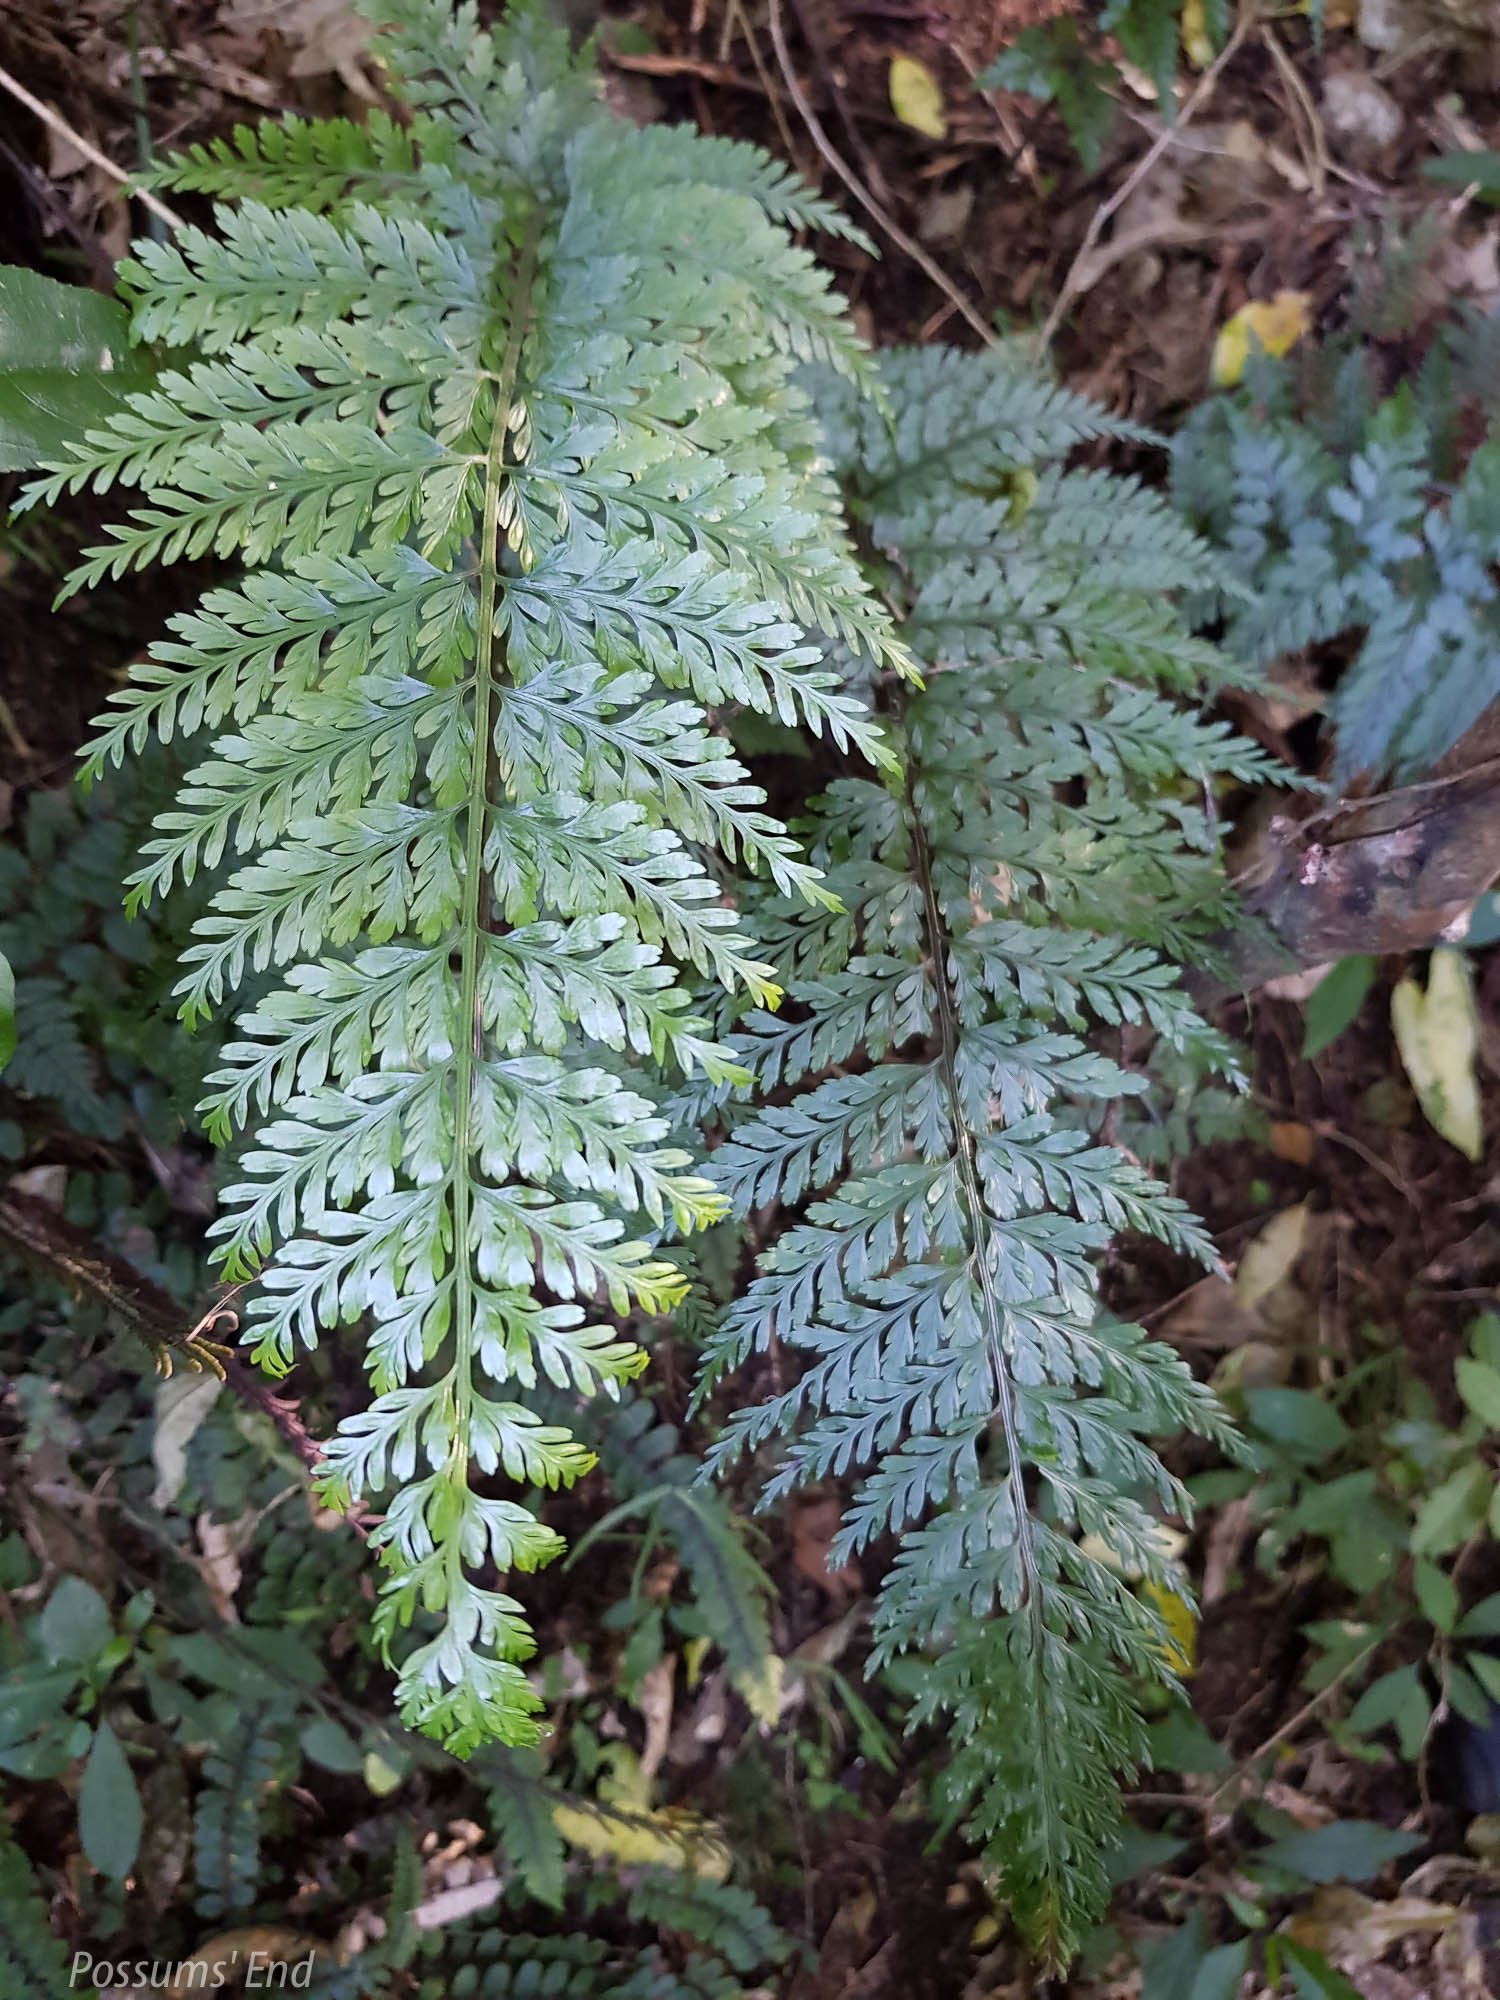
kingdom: Plantae
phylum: Tracheophyta
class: Polypodiopsida
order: Polypodiales
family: Aspleniaceae
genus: Asplenium
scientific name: Asplenium
